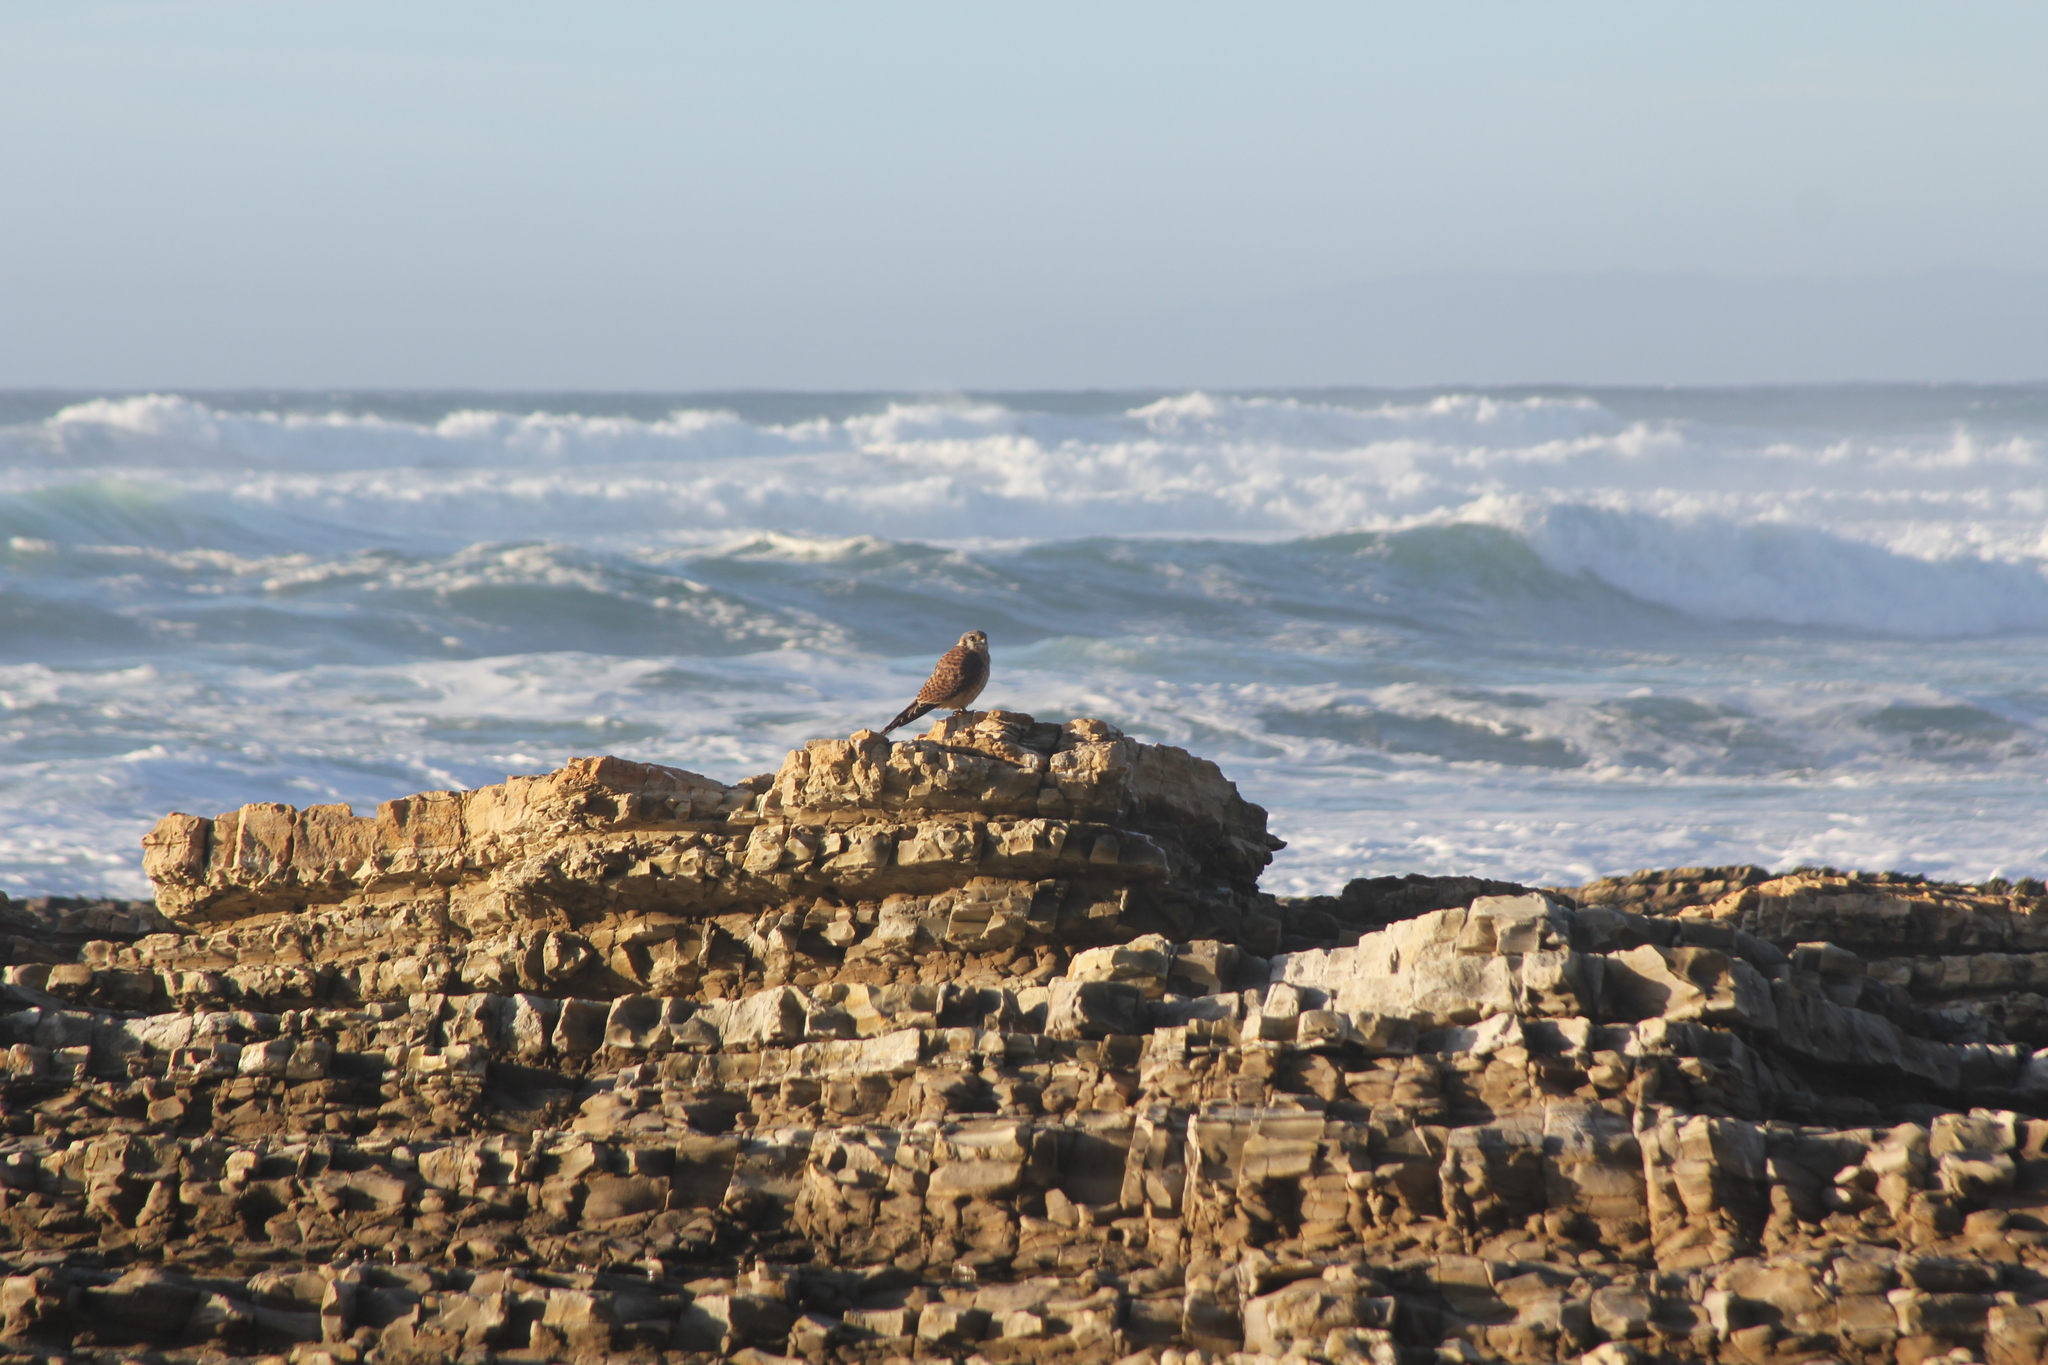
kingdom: Animalia
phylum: Chordata
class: Aves
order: Falconiformes
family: Falconidae
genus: Falco
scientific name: Falco sparverius
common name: American kestrel
